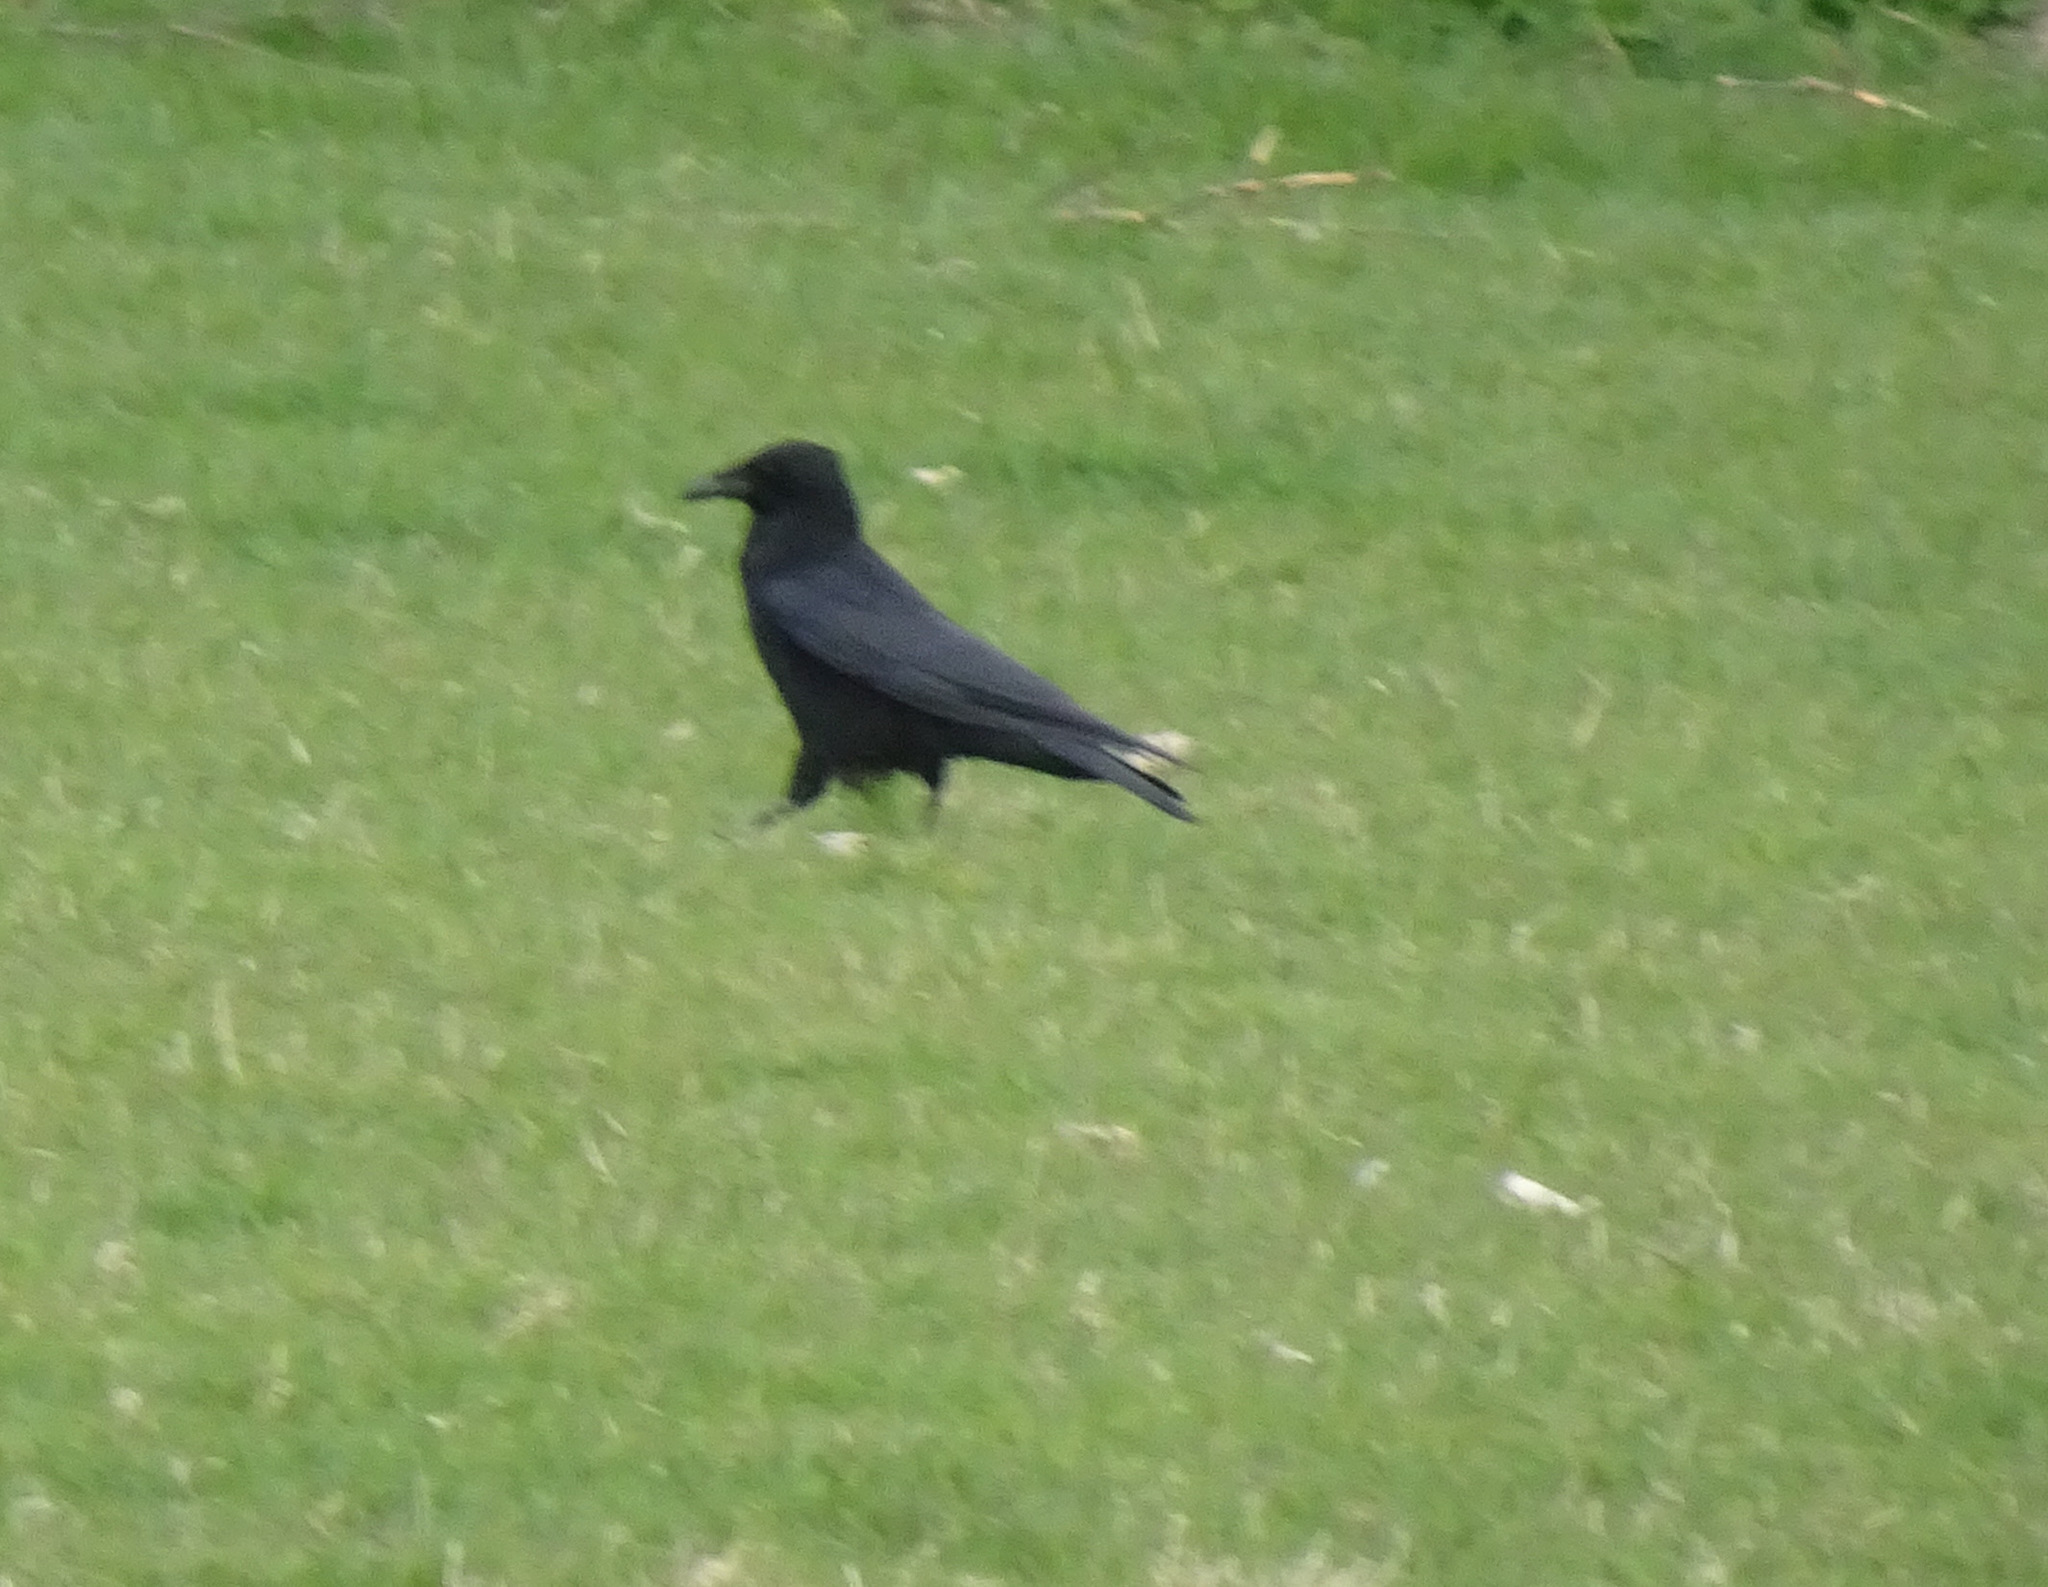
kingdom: Animalia
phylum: Chordata
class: Aves
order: Passeriformes
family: Corvidae
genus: Corvus
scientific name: Corvus corone
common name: Carrion crow
